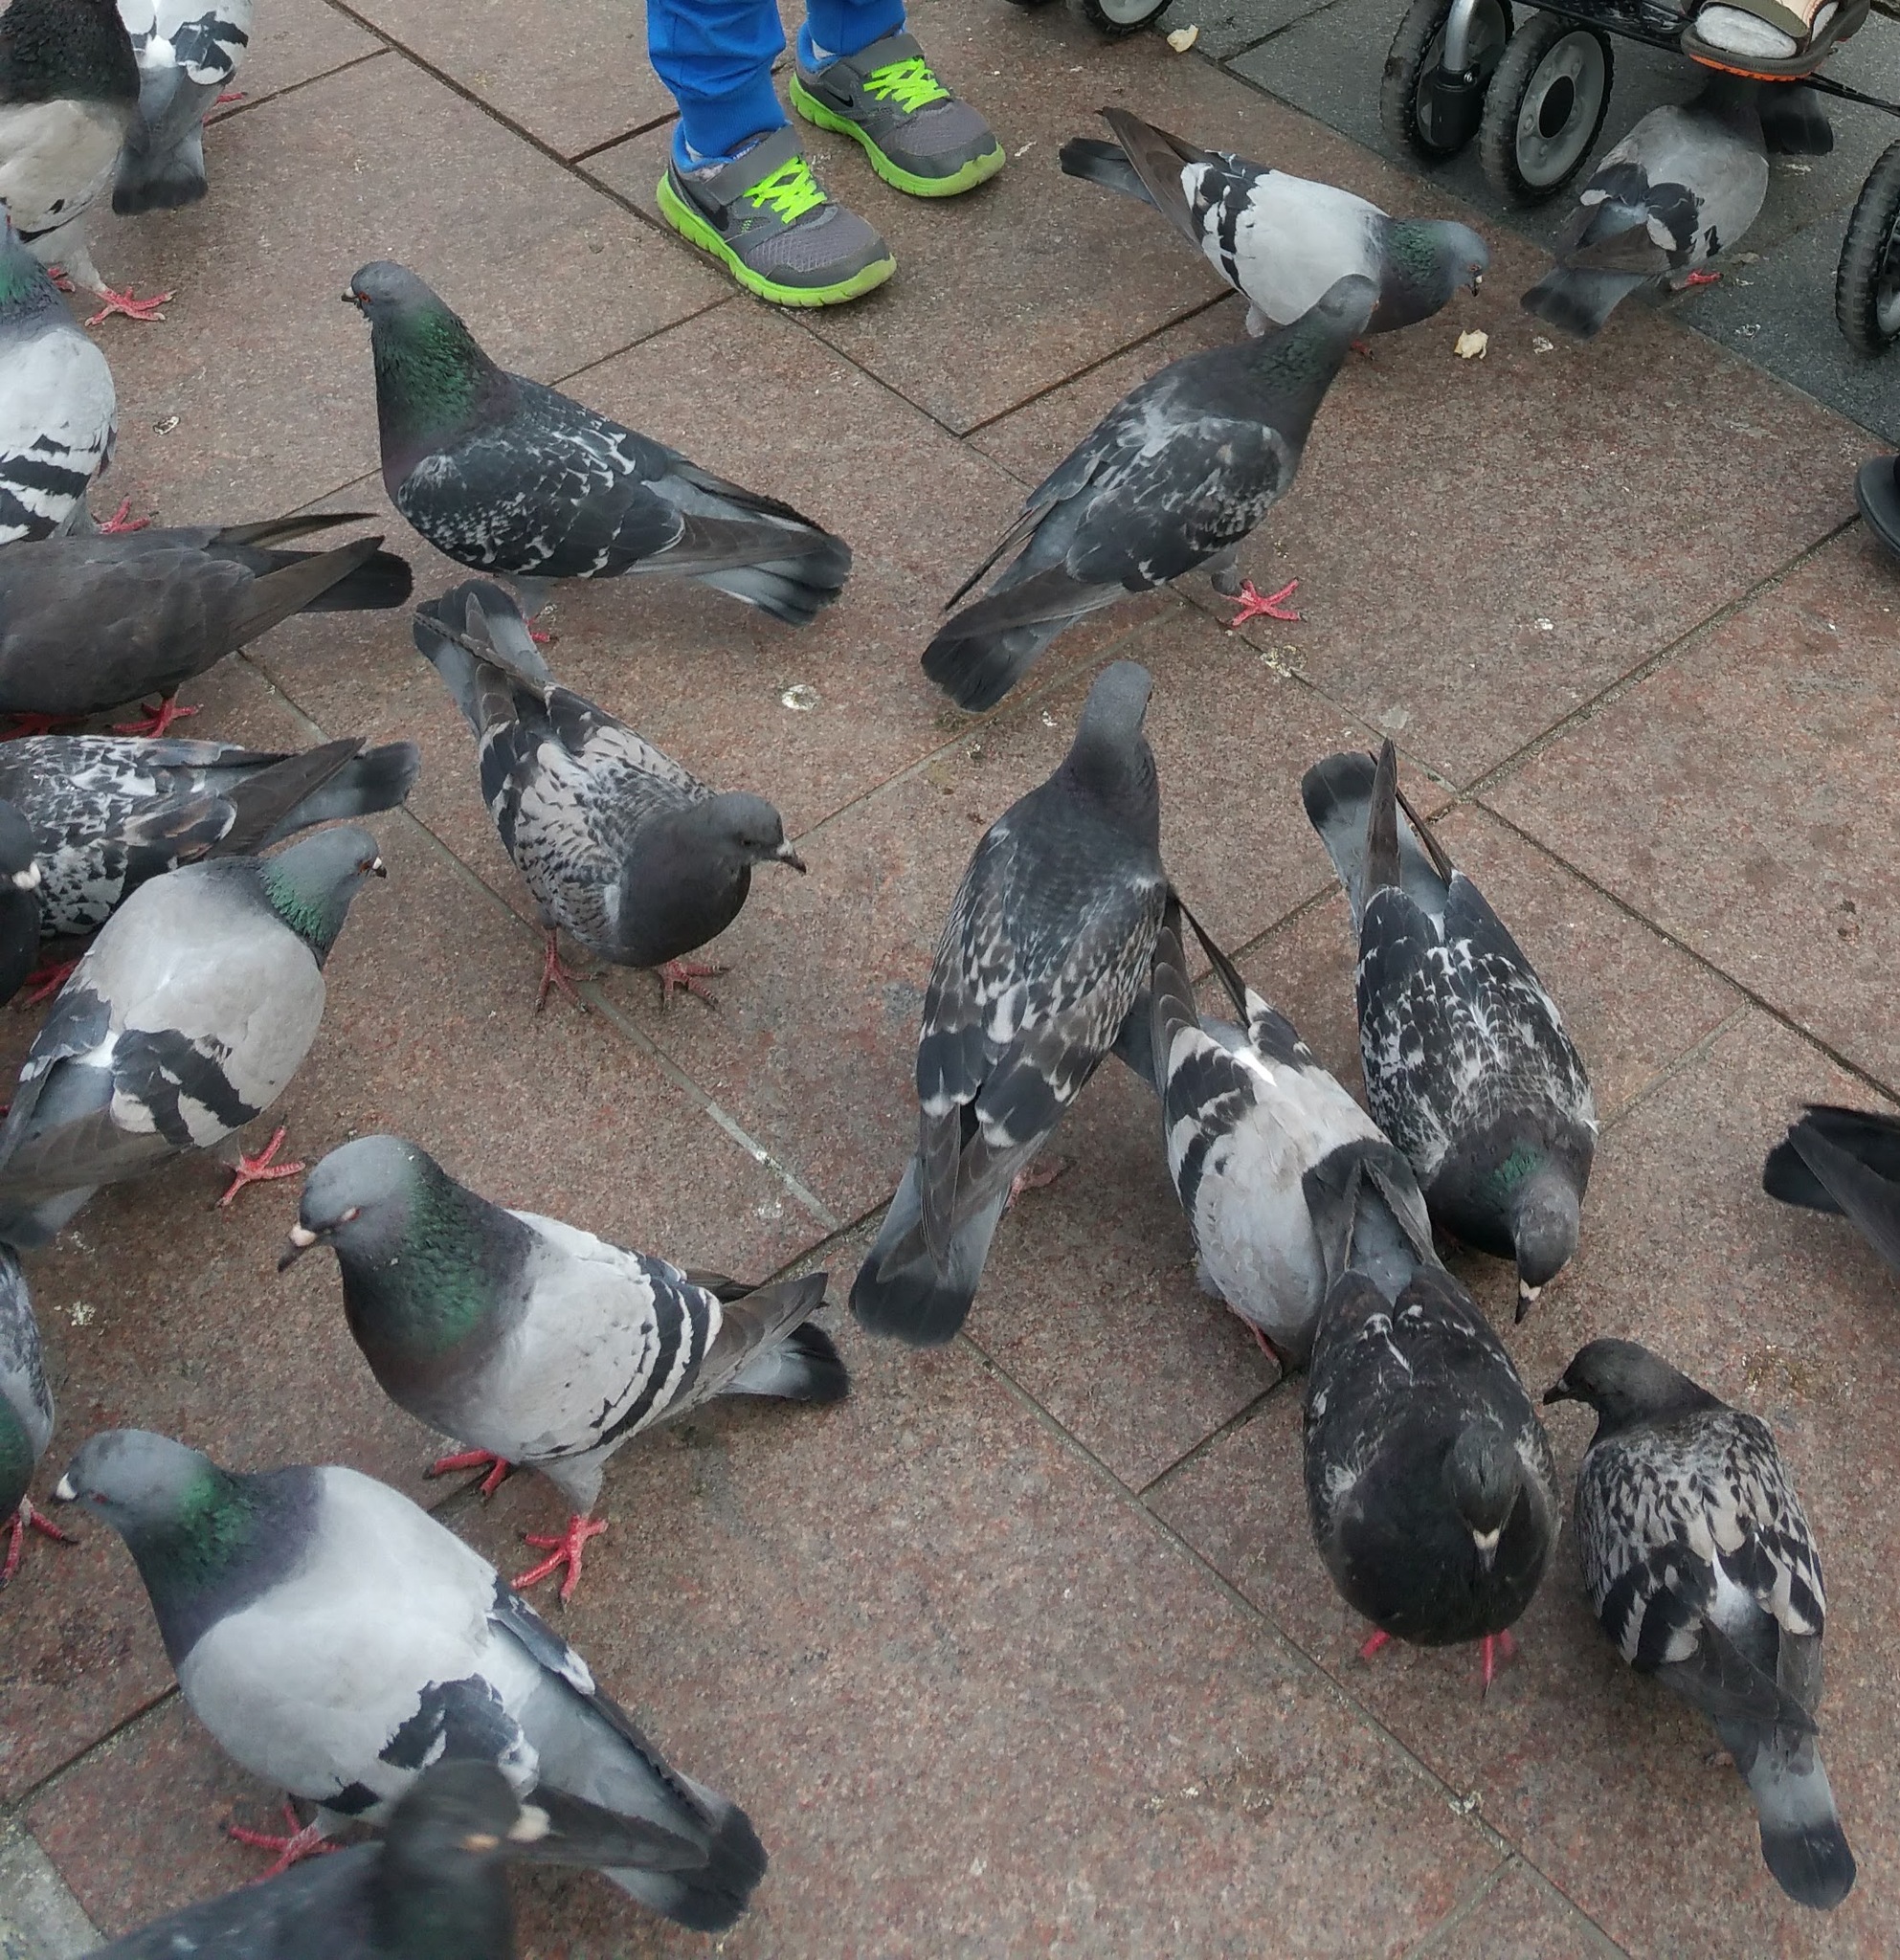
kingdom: Animalia
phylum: Chordata
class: Aves
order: Columbiformes
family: Columbidae
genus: Columba
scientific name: Columba livia
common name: Rock pigeon
